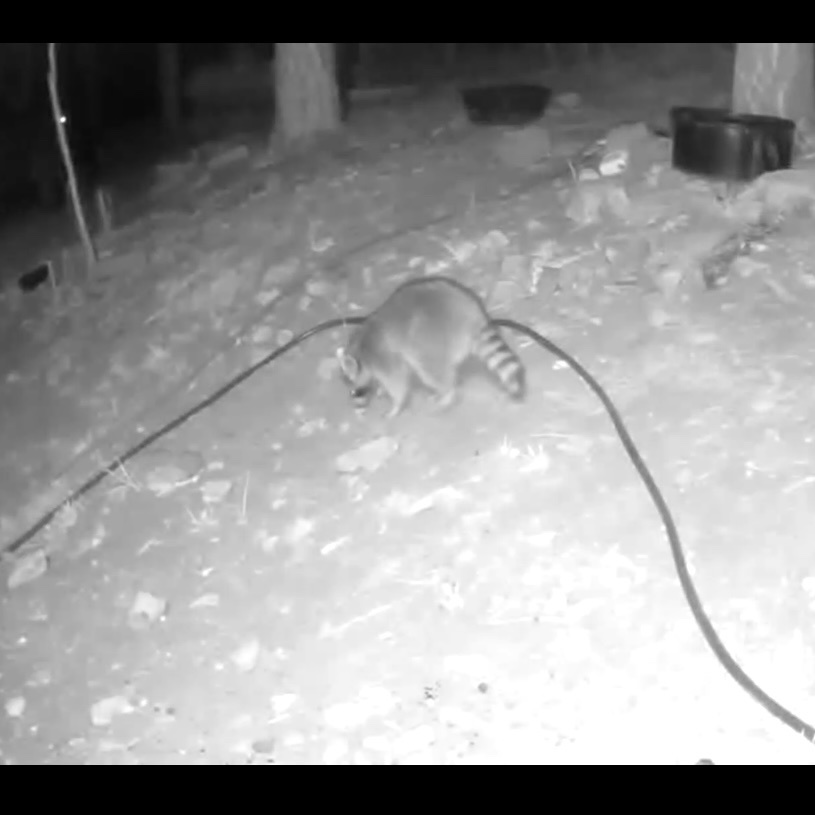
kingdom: Animalia
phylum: Chordata
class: Mammalia
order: Carnivora
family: Procyonidae
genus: Procyon
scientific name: Procyon lotor
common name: Raccoon
